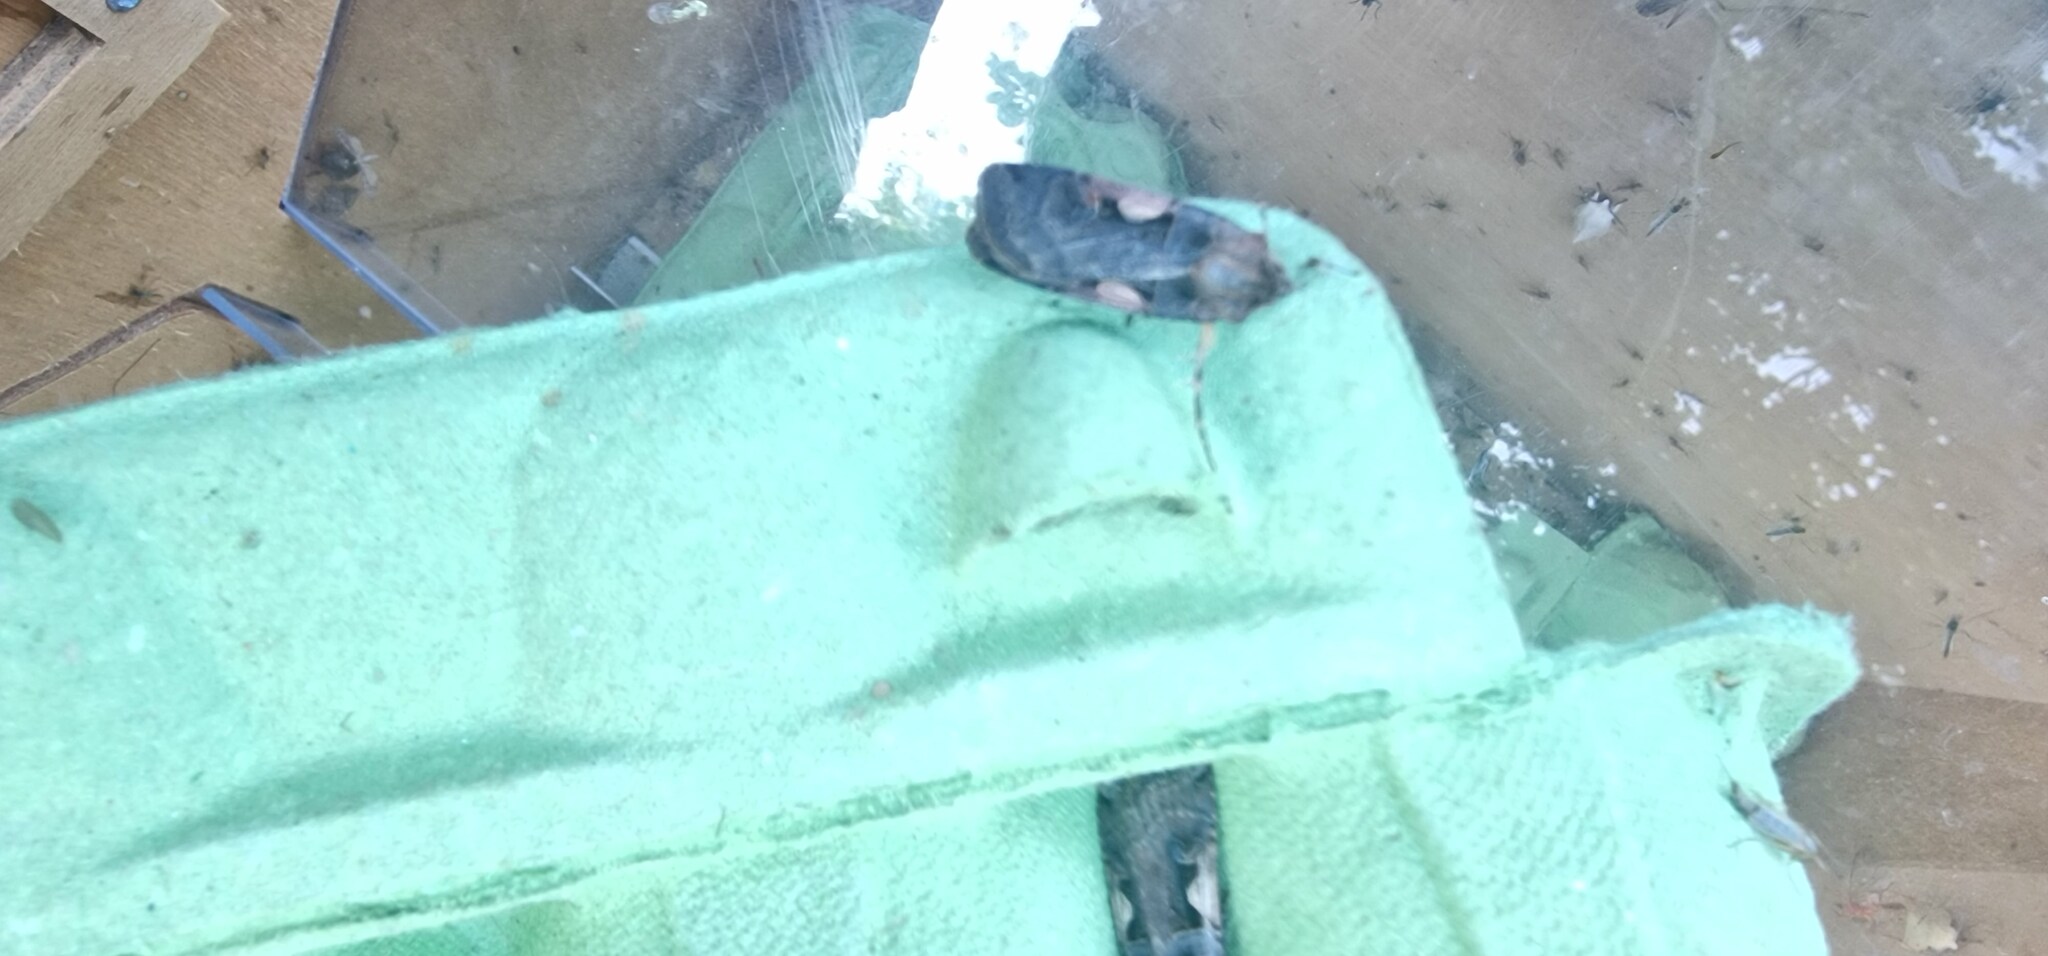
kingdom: Animalia
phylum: Arthropoda
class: Insecta
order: Lepidoptera
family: Noctuidae
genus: Xestia
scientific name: Xestia c-nigrum
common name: Setaceous hebrew character
